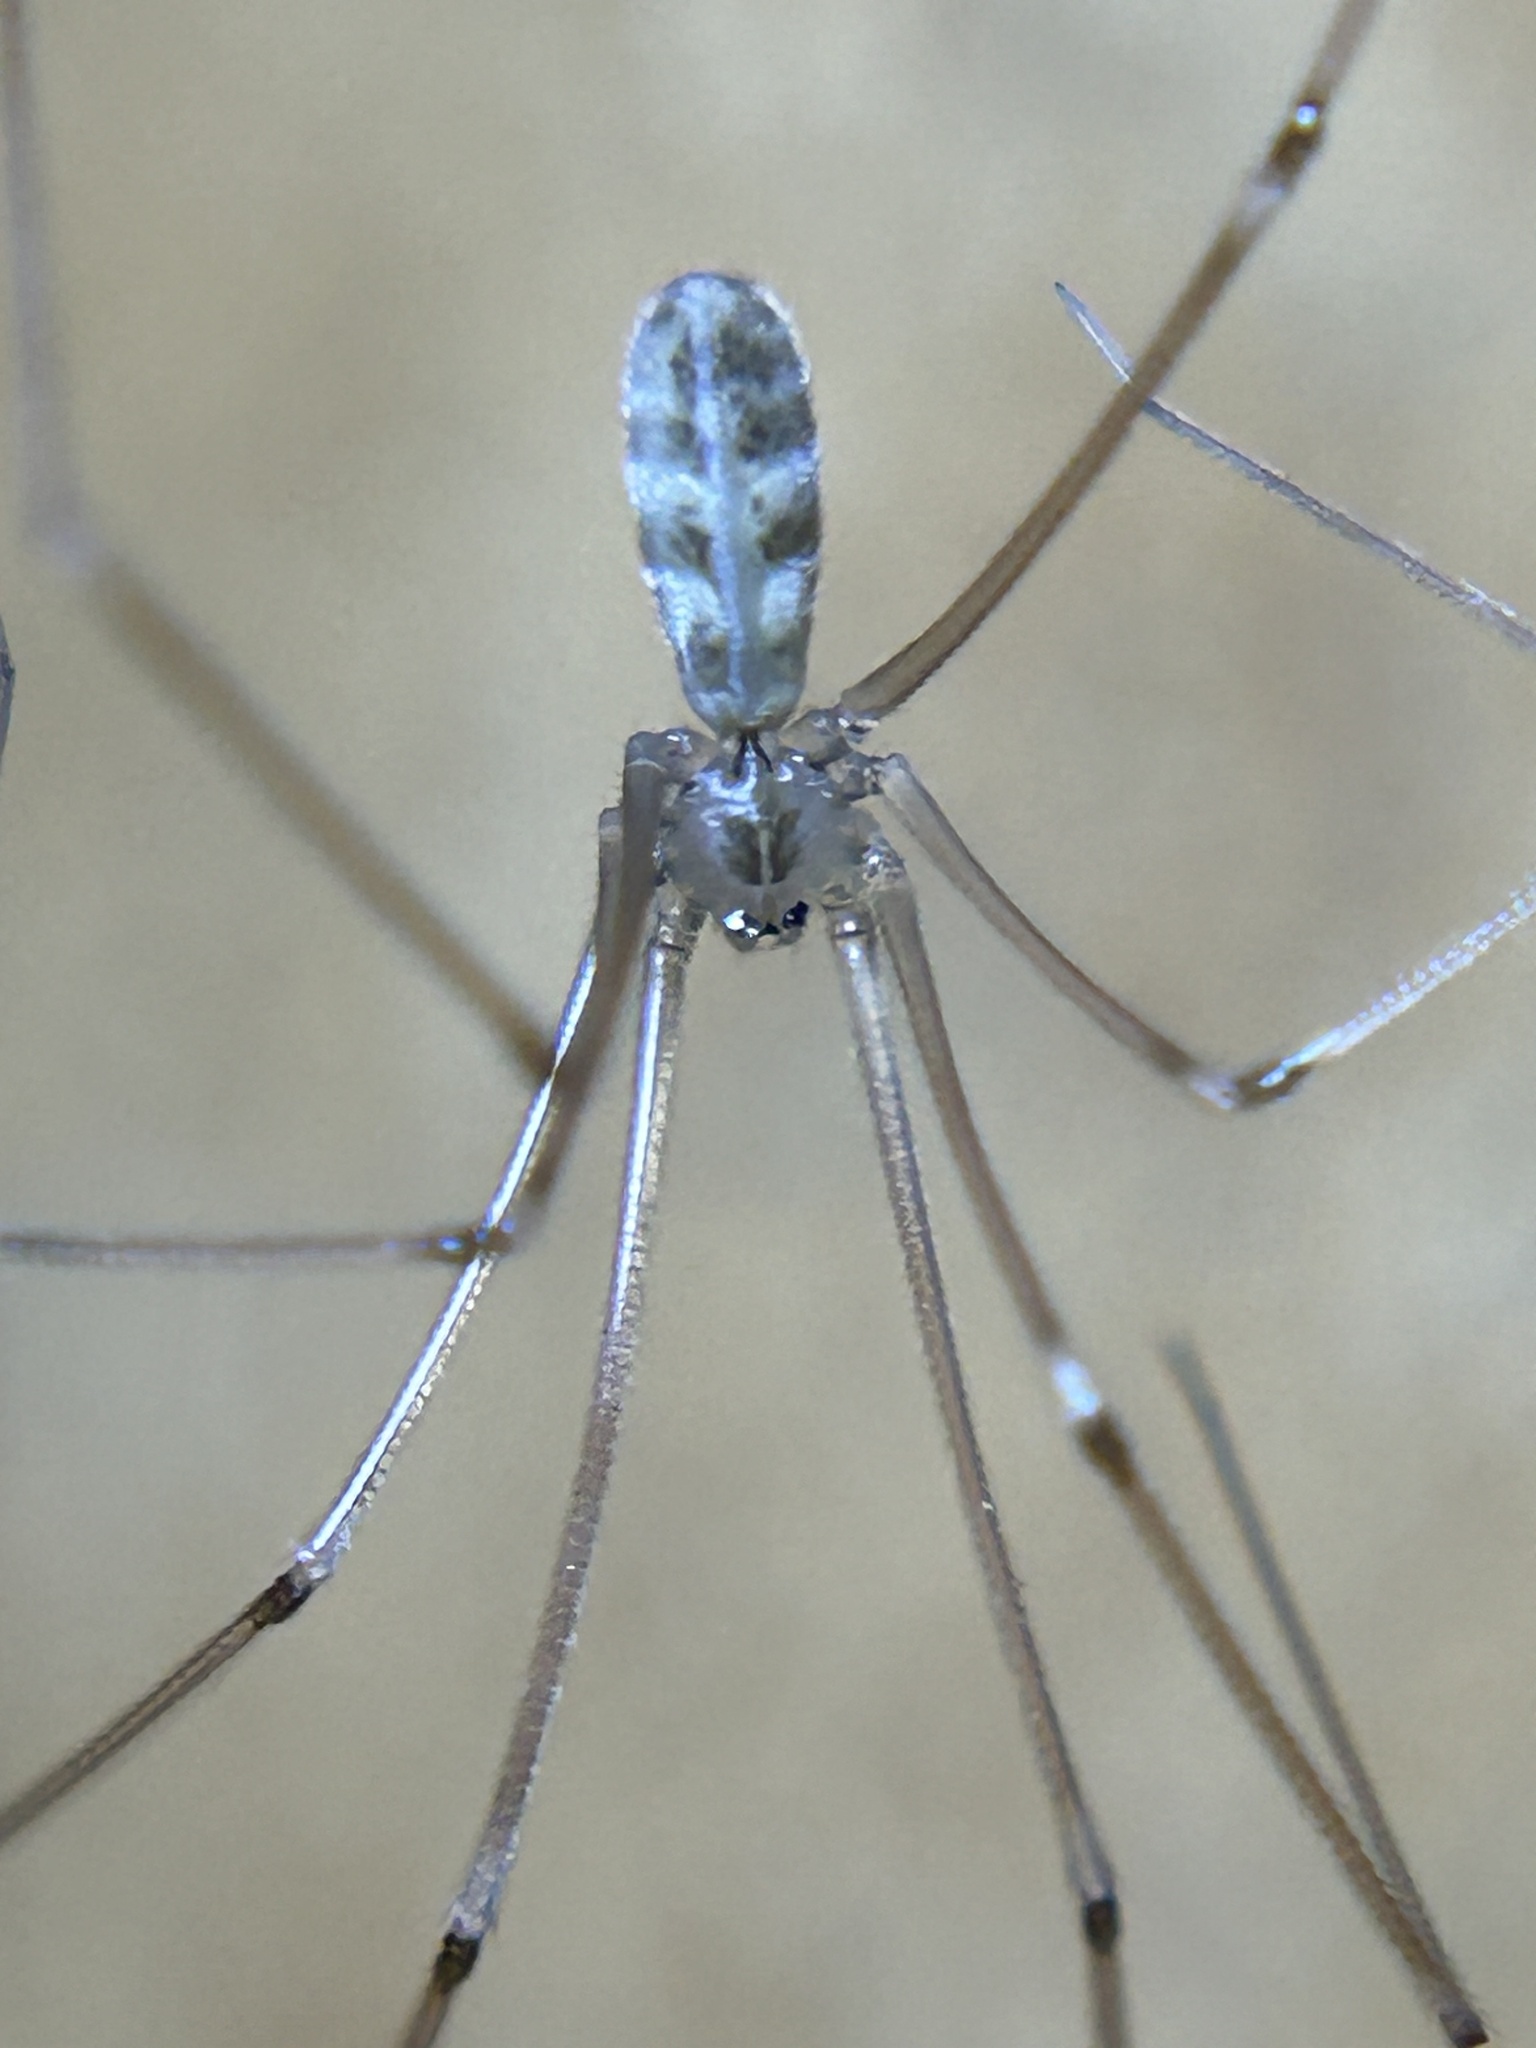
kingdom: Animalia
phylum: Arthropoda
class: Arachnida
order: Araneae
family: Pholcidae
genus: Pholcus
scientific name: Pholcus phalangioides
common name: Longbodied cellar spider
